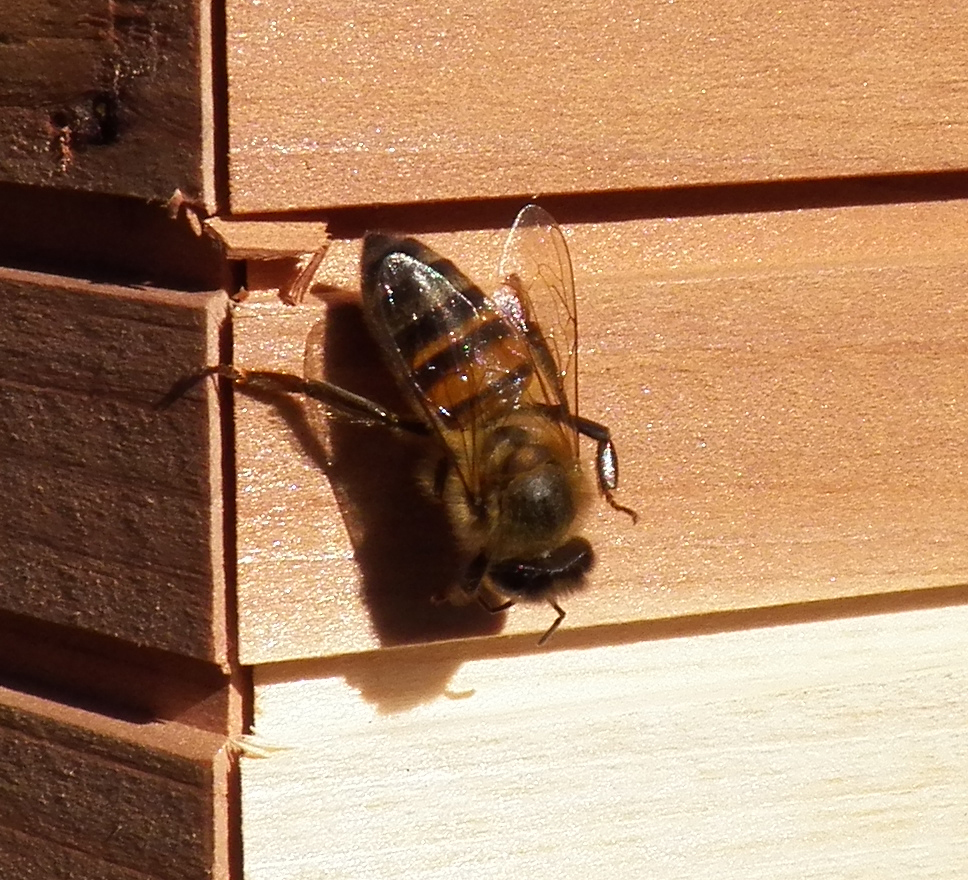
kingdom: Animalia
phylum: Arthropoda
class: Insecta
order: Hymenoptera
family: Apidae
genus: Apis
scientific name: Apis mellifera
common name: Honey bee
